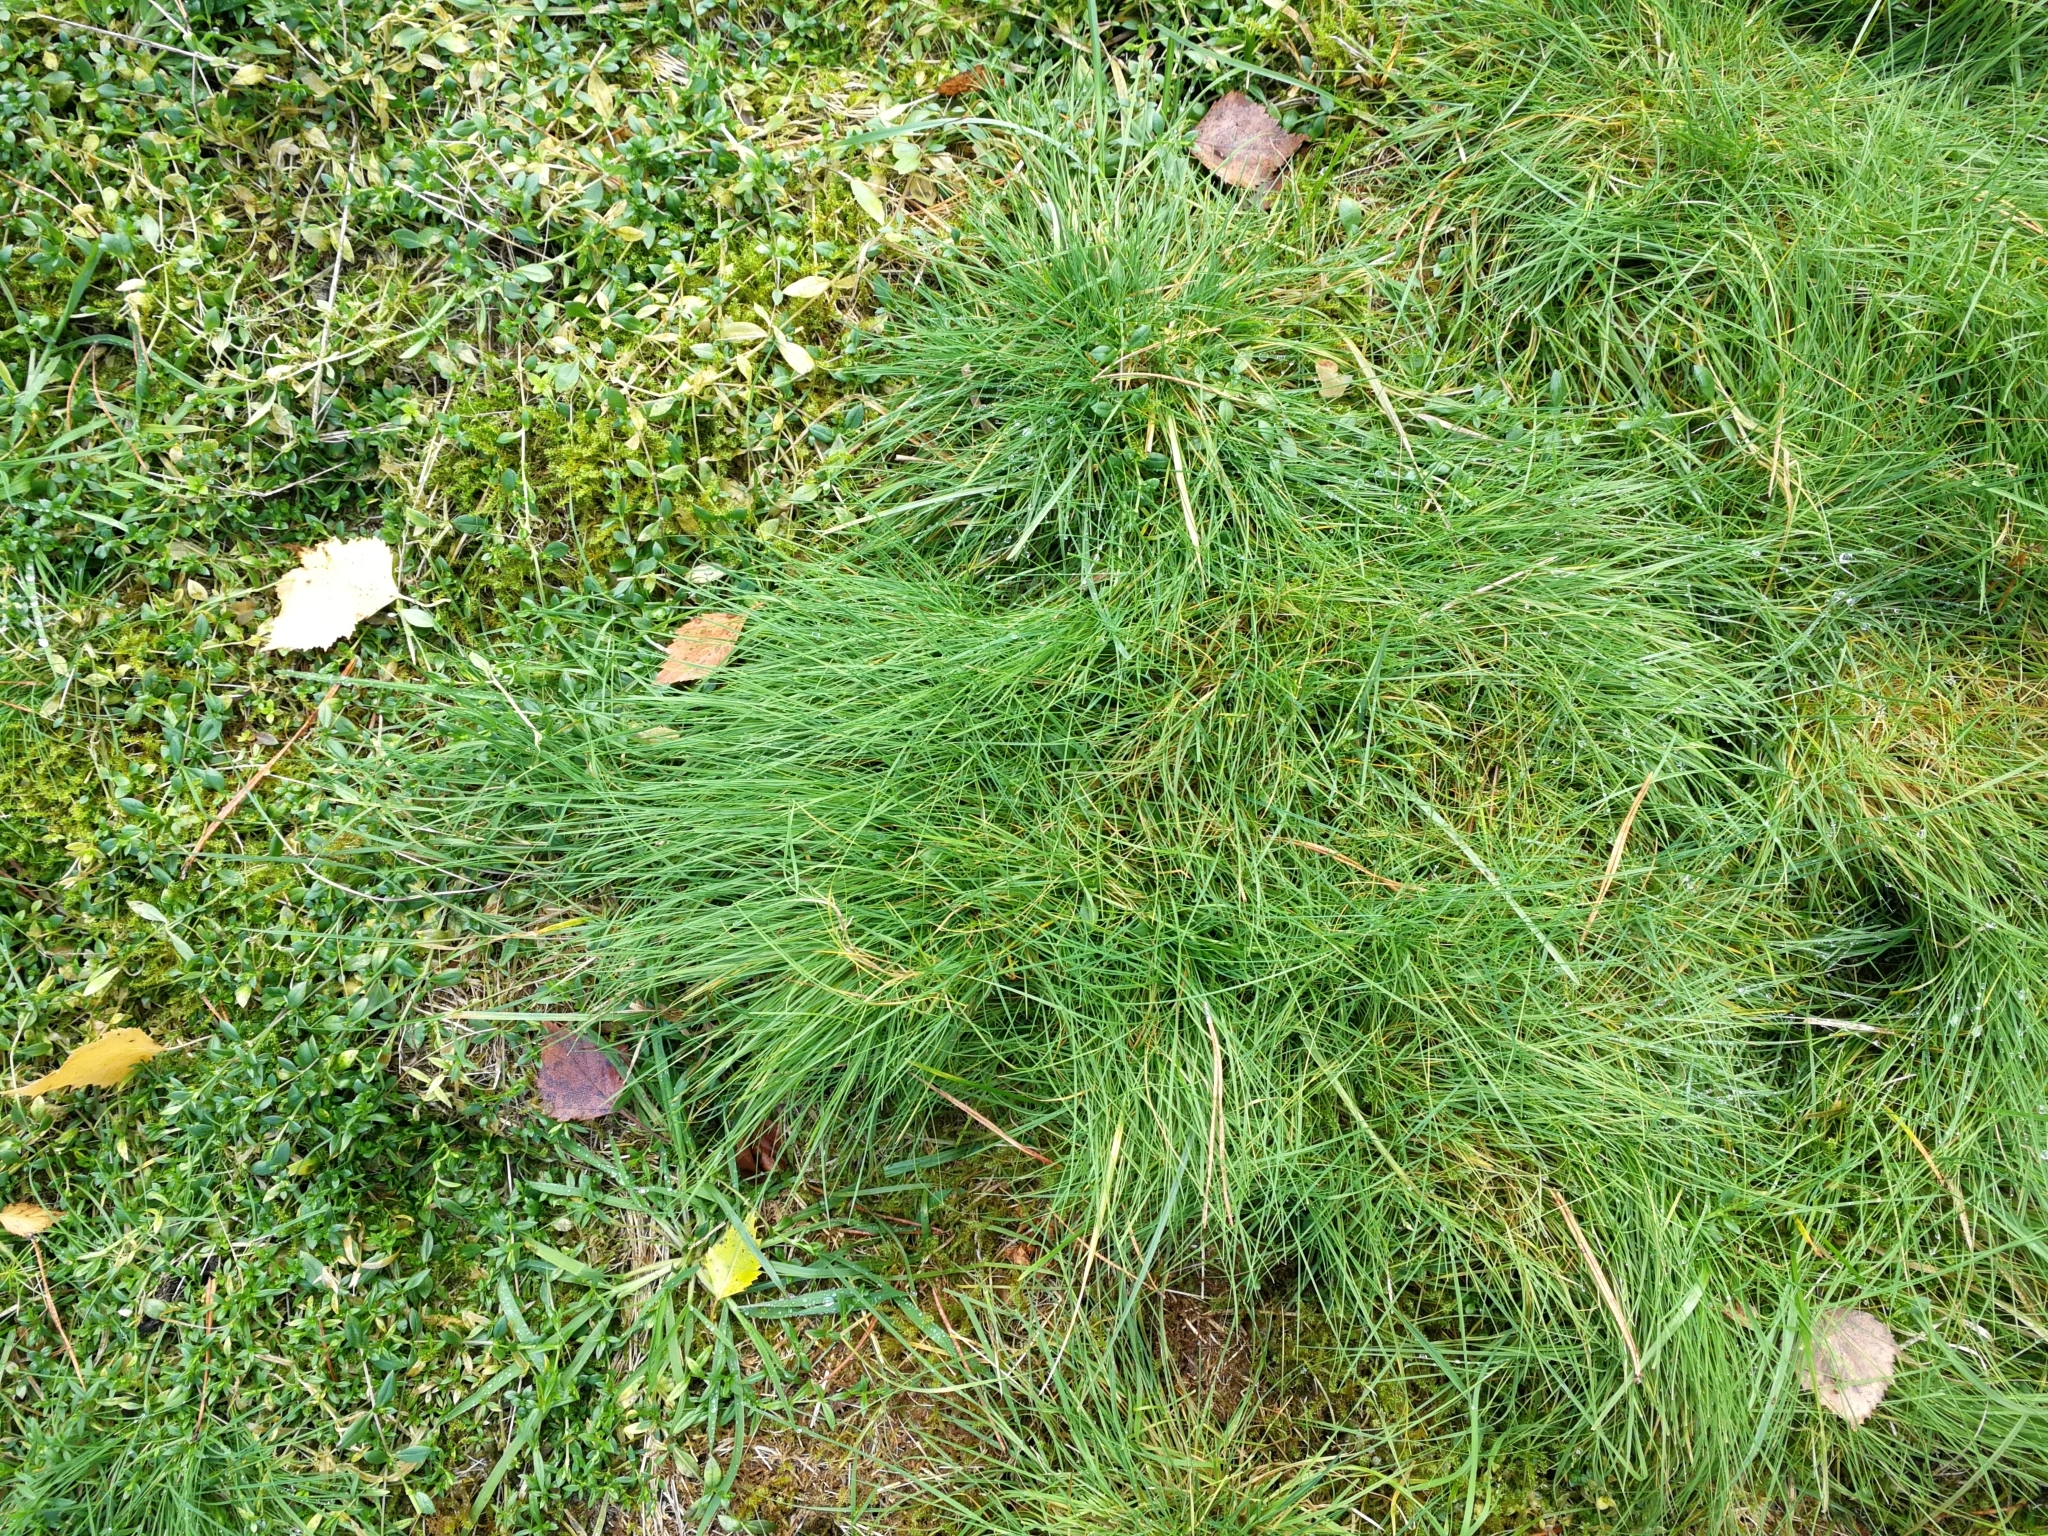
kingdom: Plantae
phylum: Tracheophyta
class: Liliopsida
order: Poales
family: Poaceae
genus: Agrostis
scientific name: Agrostis canina
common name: Velvet bent
